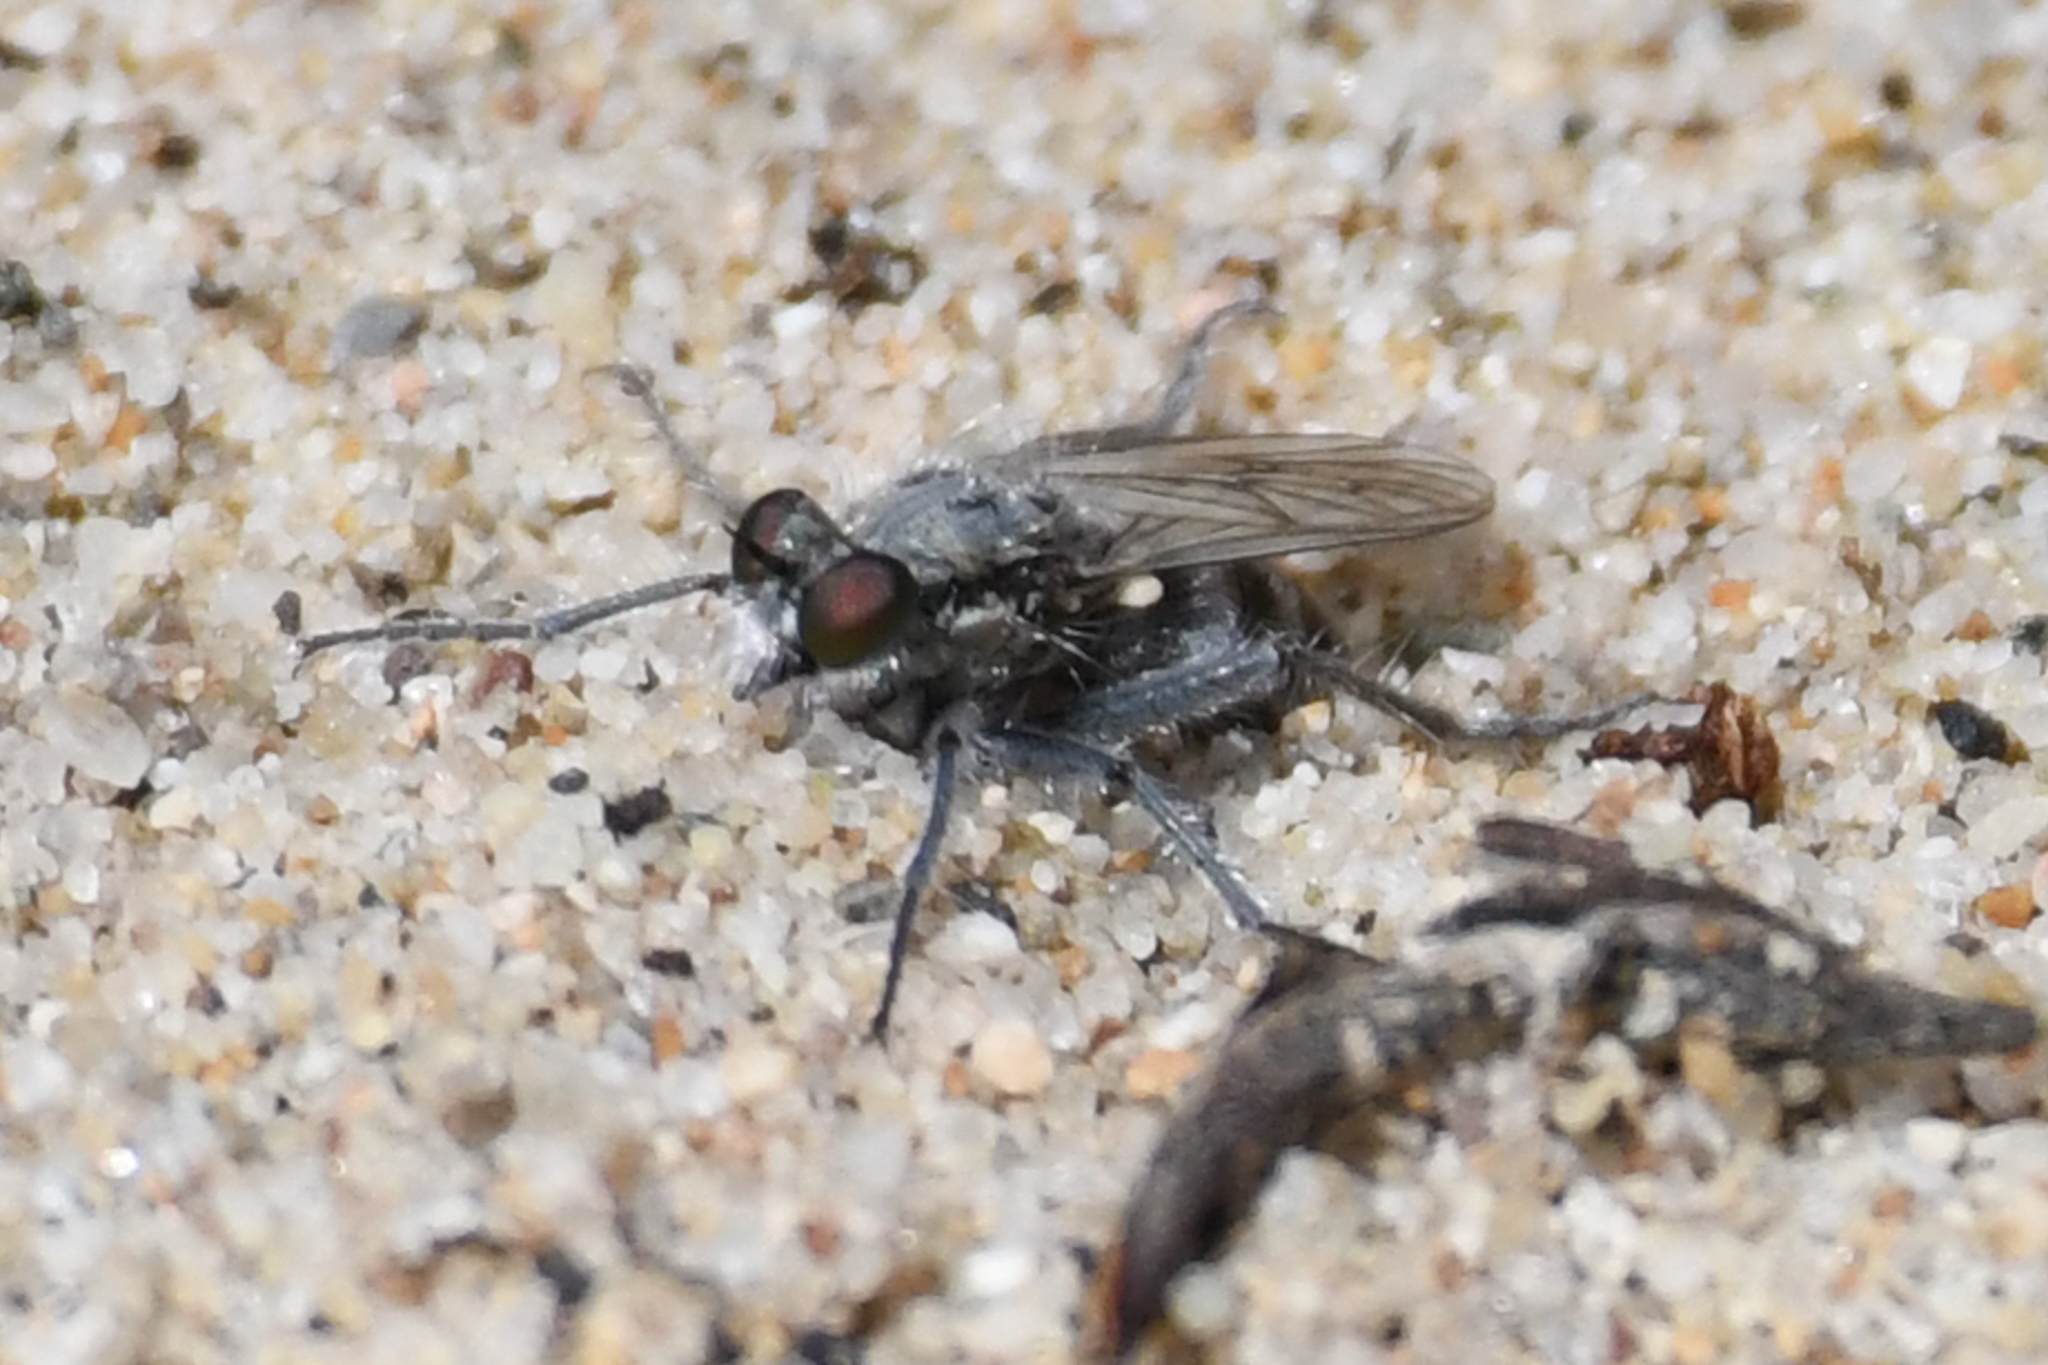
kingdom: Animalia
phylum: Arthropoda
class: Insecta
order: Diptera
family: Asilidae
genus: Lasiopogon
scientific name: Lasiopogon littoris
